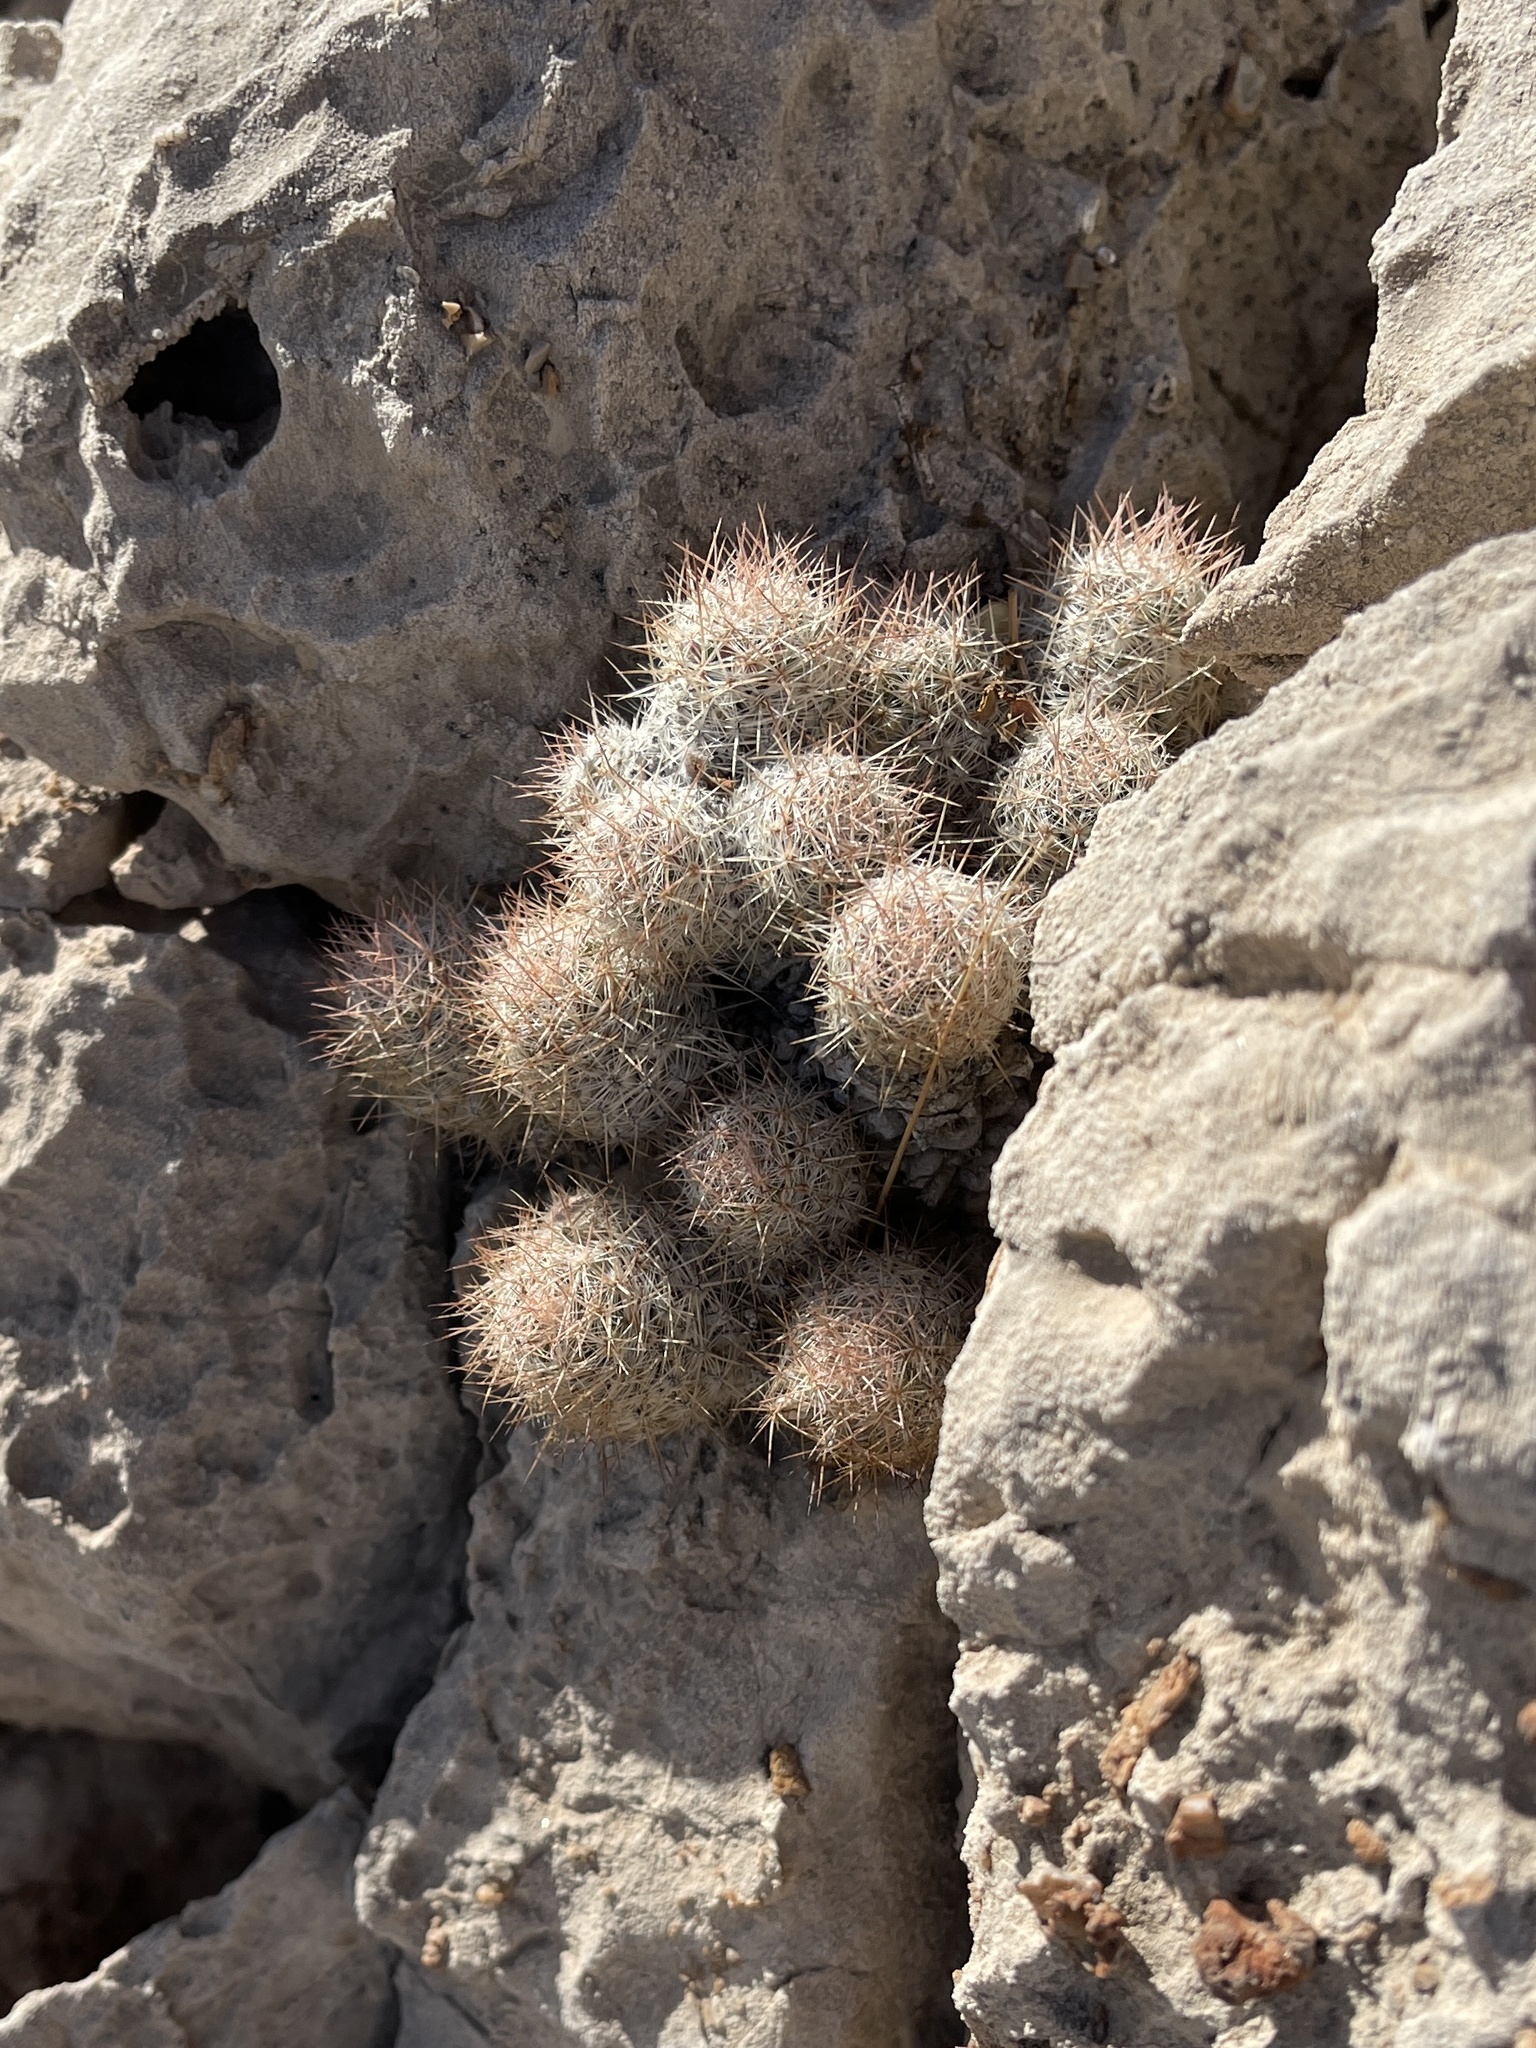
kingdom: Plantae
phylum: Tracheophyta
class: Magnoliopsida
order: Caryophyllales
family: Cactaceae
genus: Pelecyphora
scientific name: Pelecyphora sneedii
